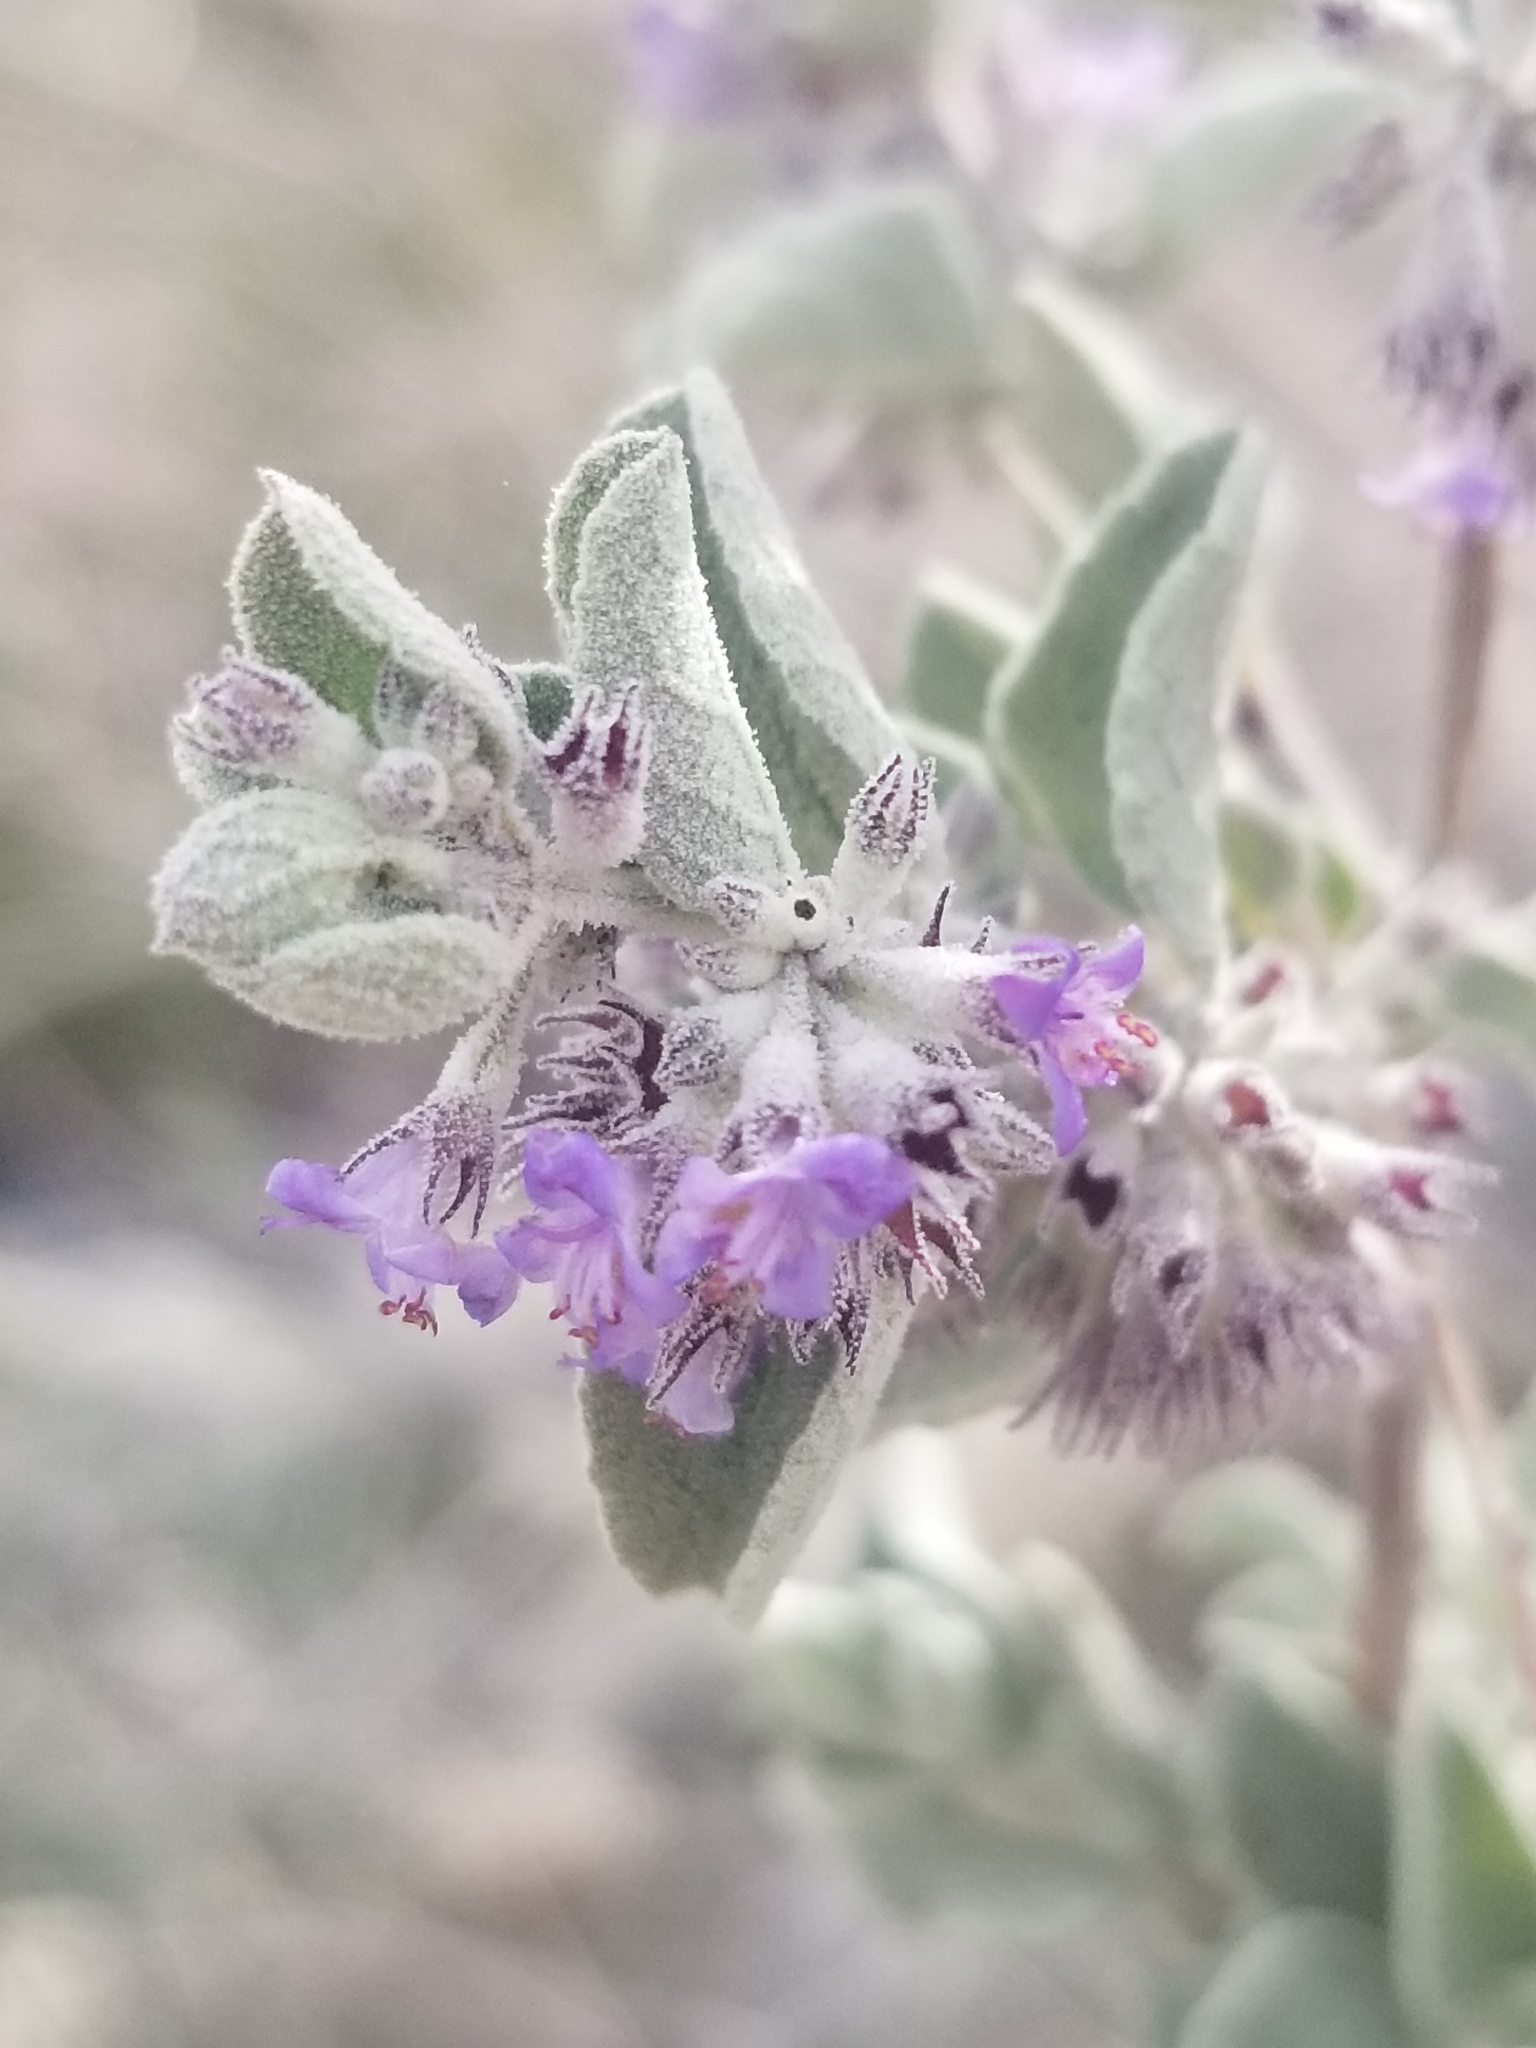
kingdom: Plantae
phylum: Tracheophyta
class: Magnoliopsida
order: Lamiales
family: Lamiaceae
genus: Condea
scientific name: Condea emoryi
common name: Chia
